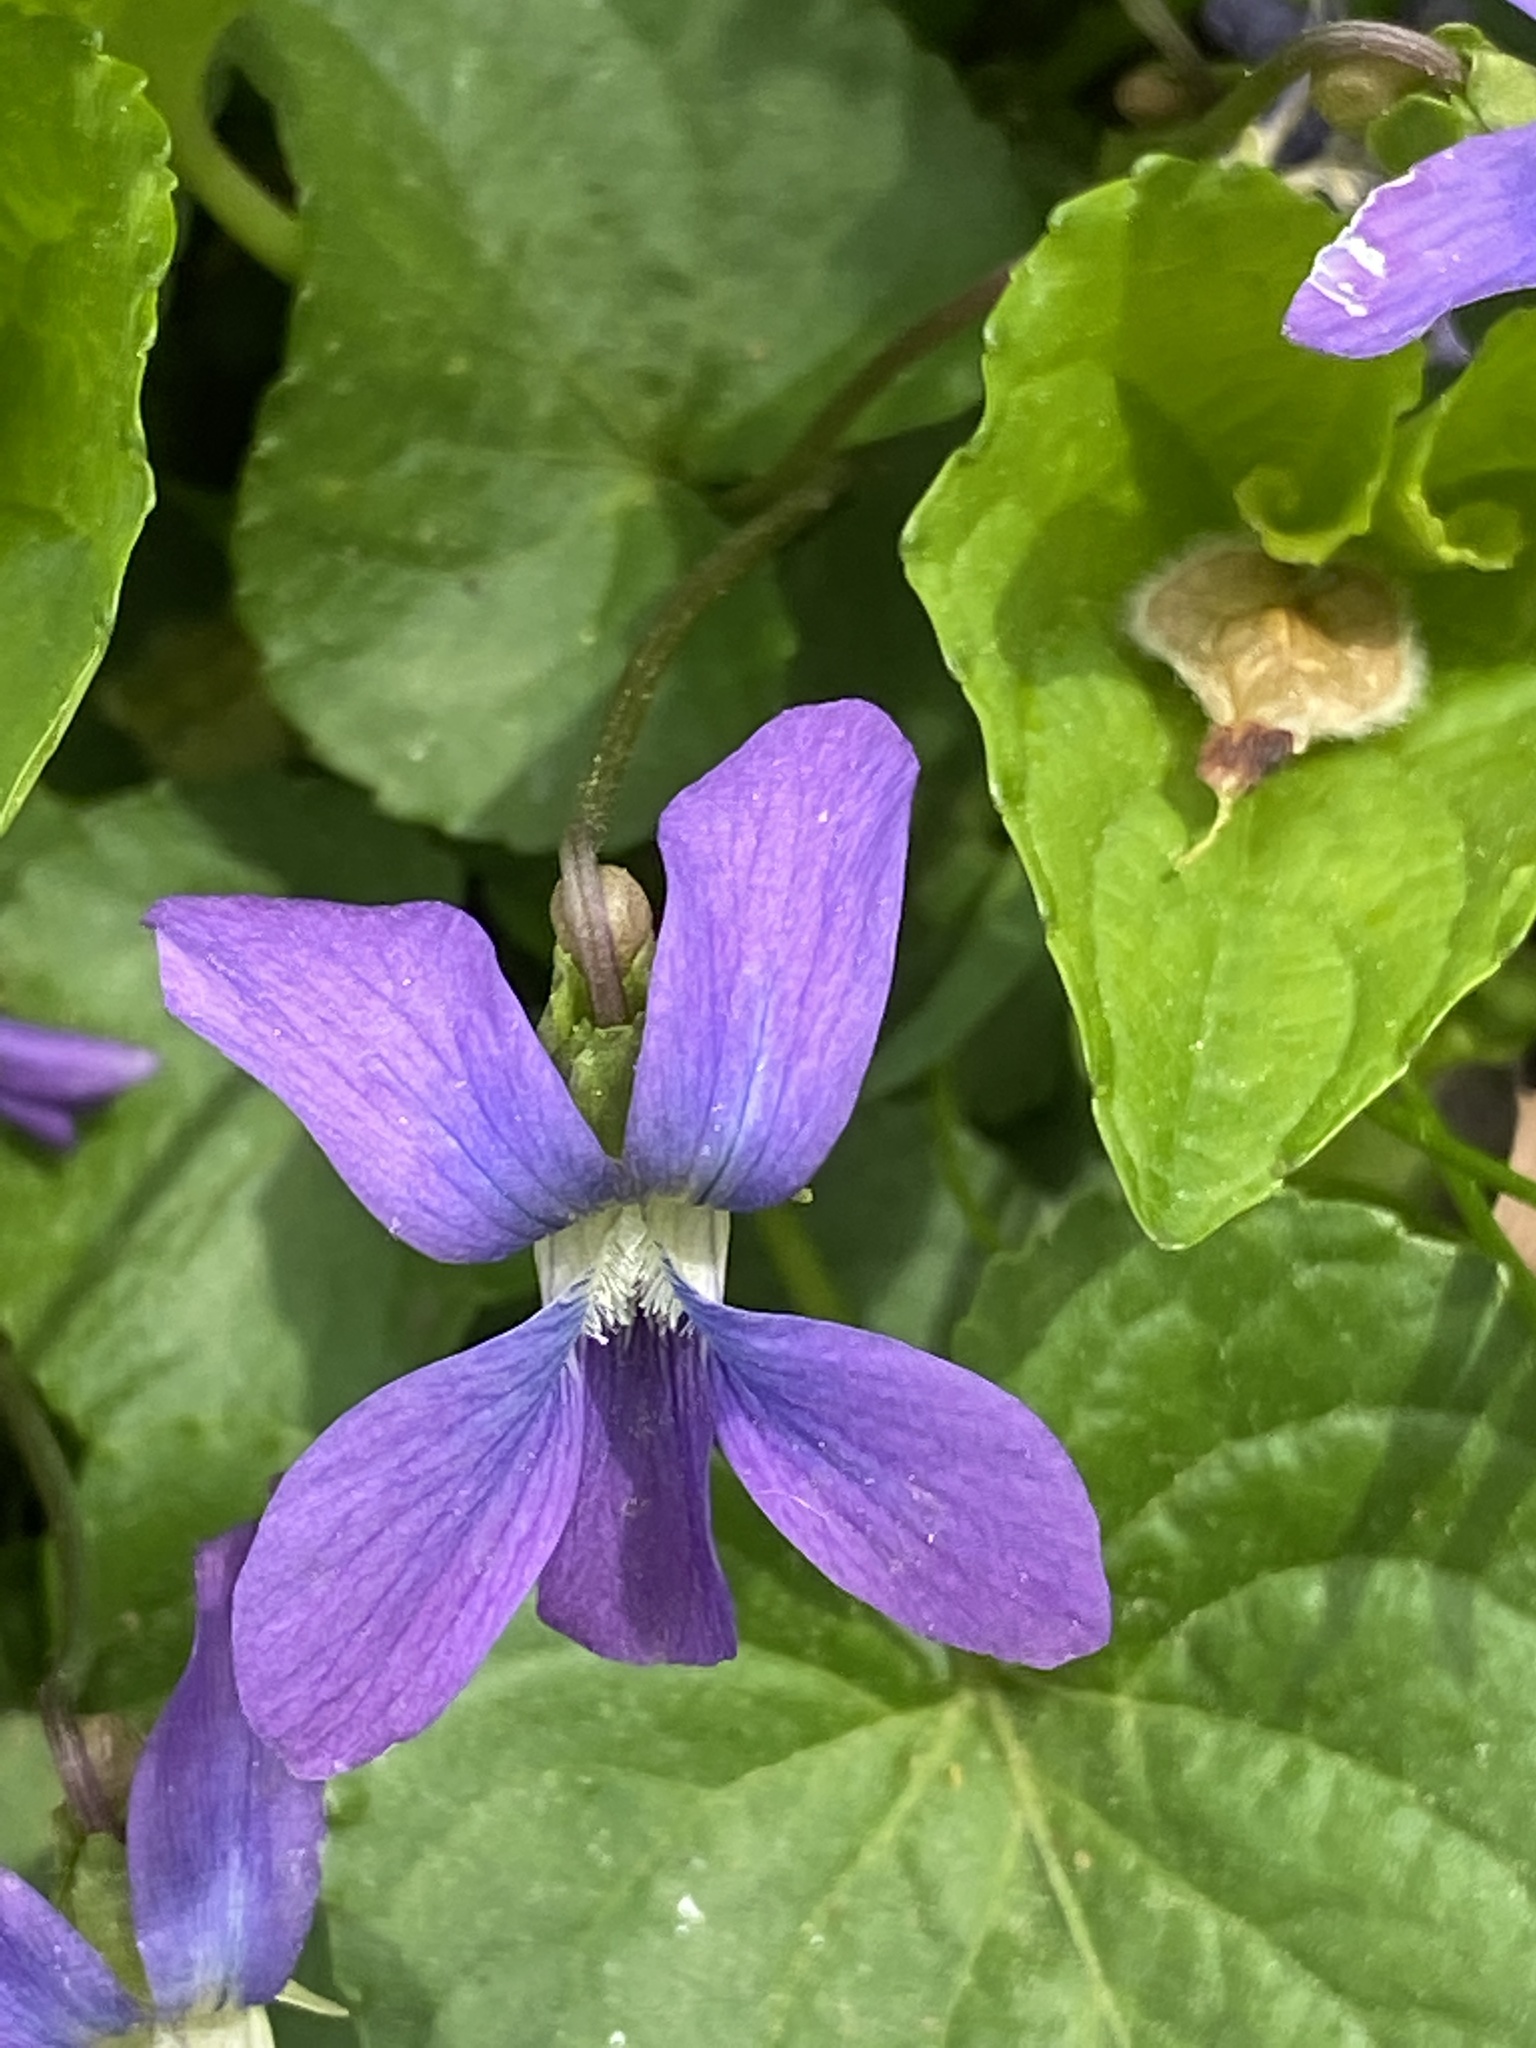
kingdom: Plantae
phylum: Tracheophyta
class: Magnoliopsida
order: Malpighiales
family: Violaceae
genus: Viola
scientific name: Viola sororia
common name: Dooryard violet
